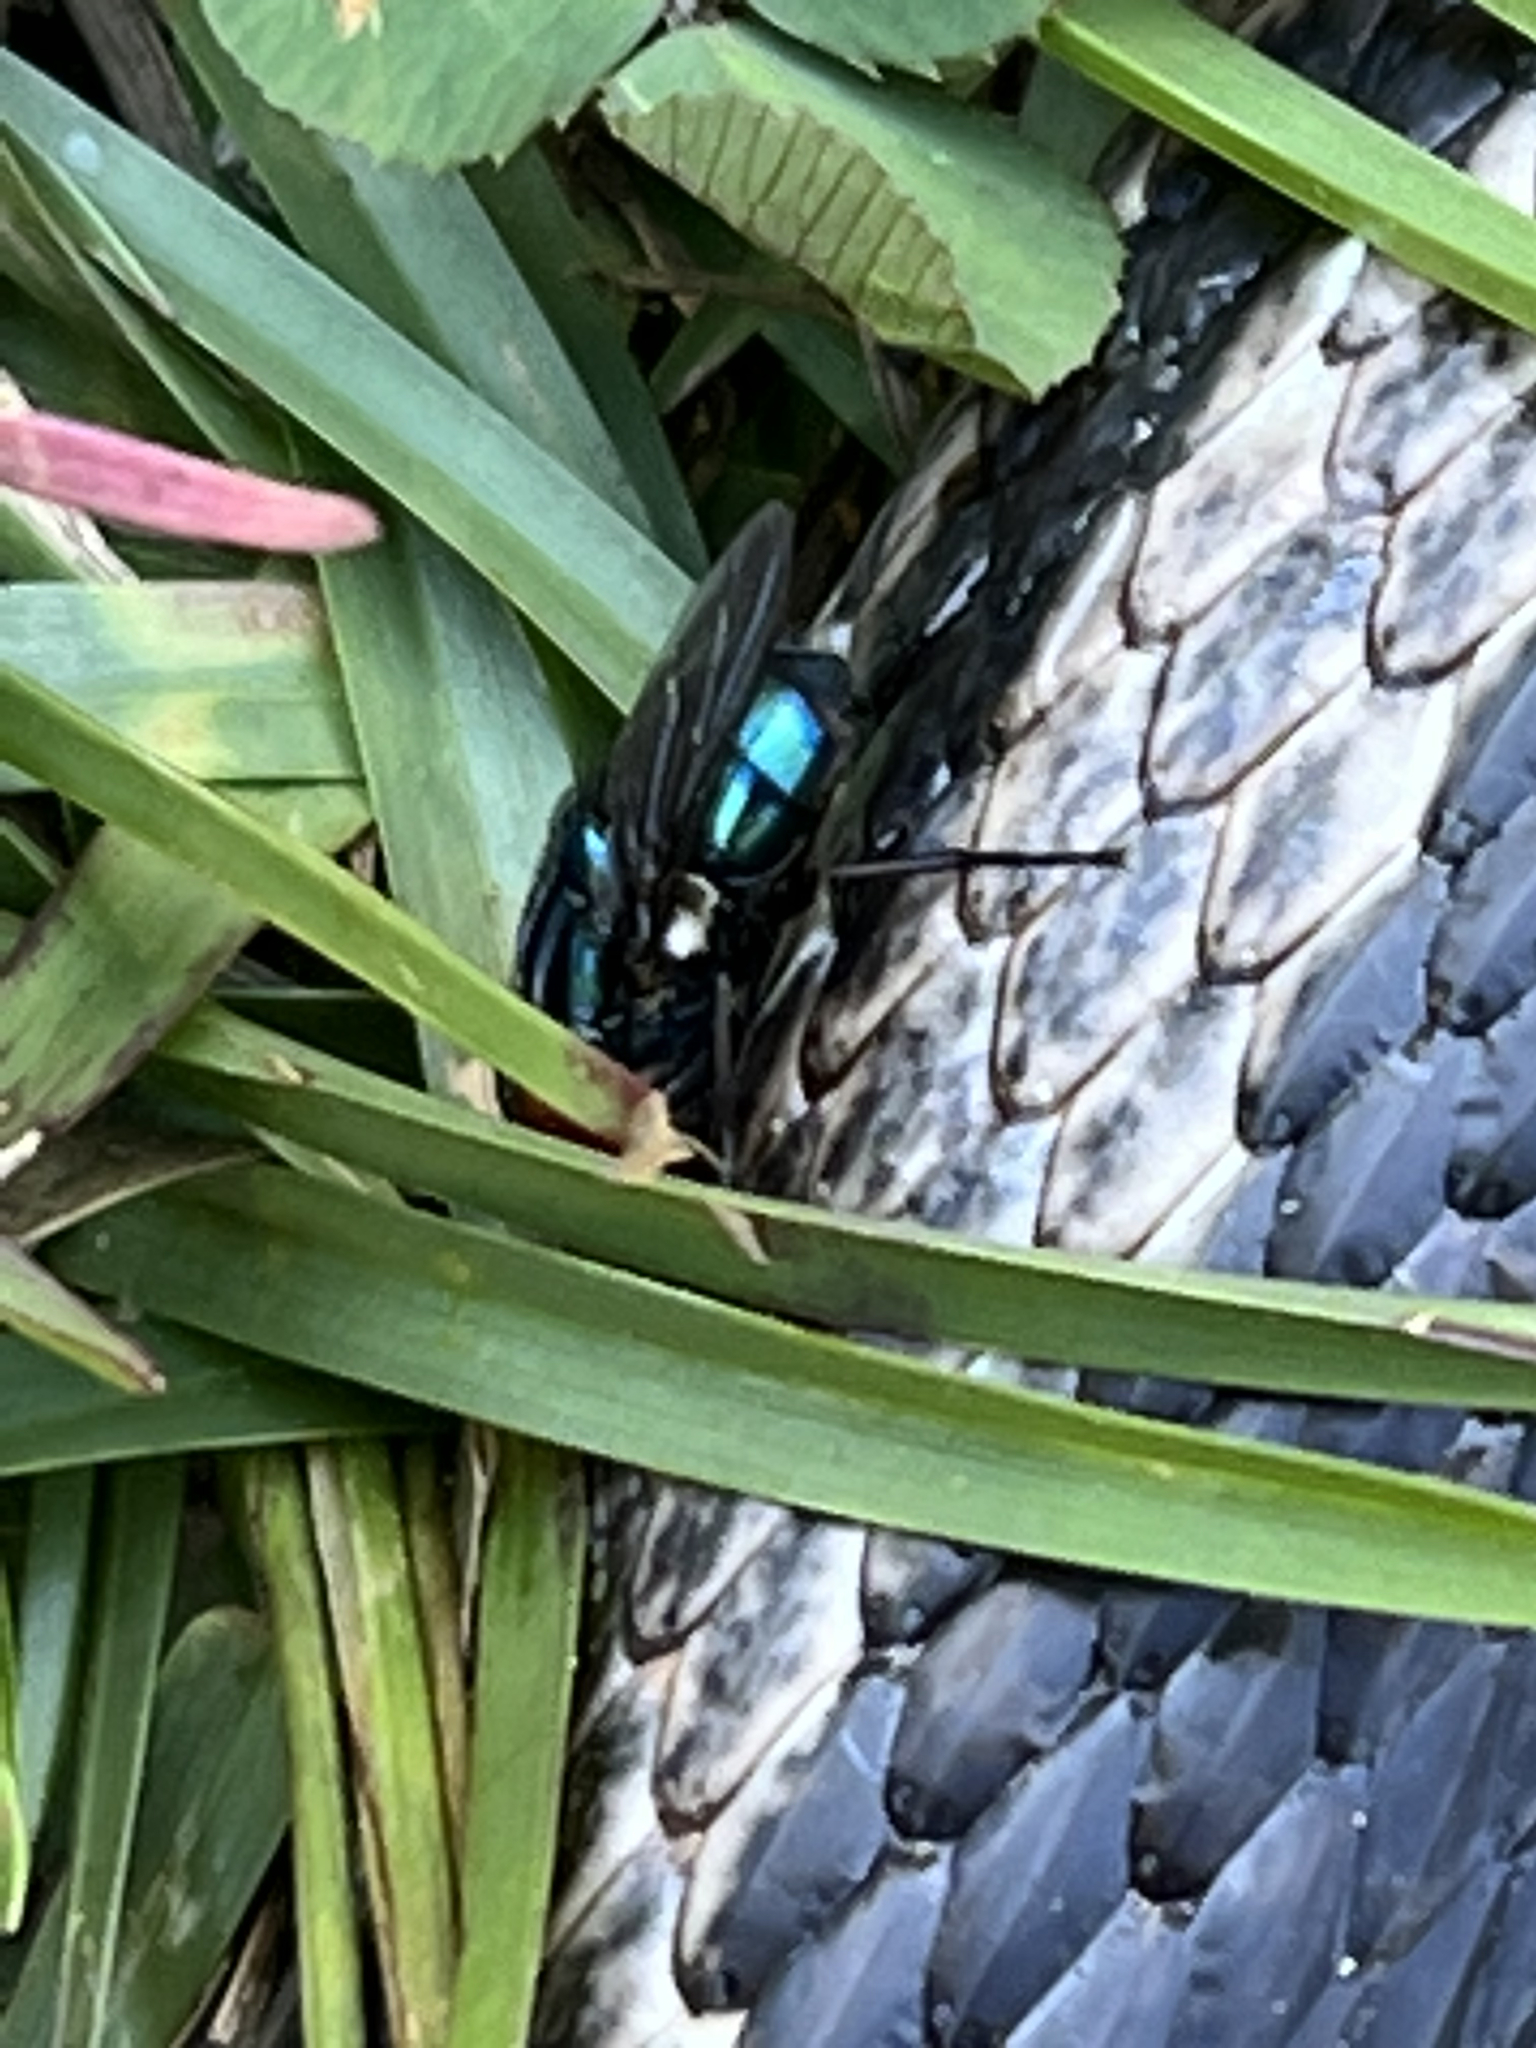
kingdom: Animalia
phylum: Arthropoda
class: Insecta
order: Diptera
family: Calliphoridae
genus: Cochliomyia
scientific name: Cochliomyia macellaria
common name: Secondary screwworm
